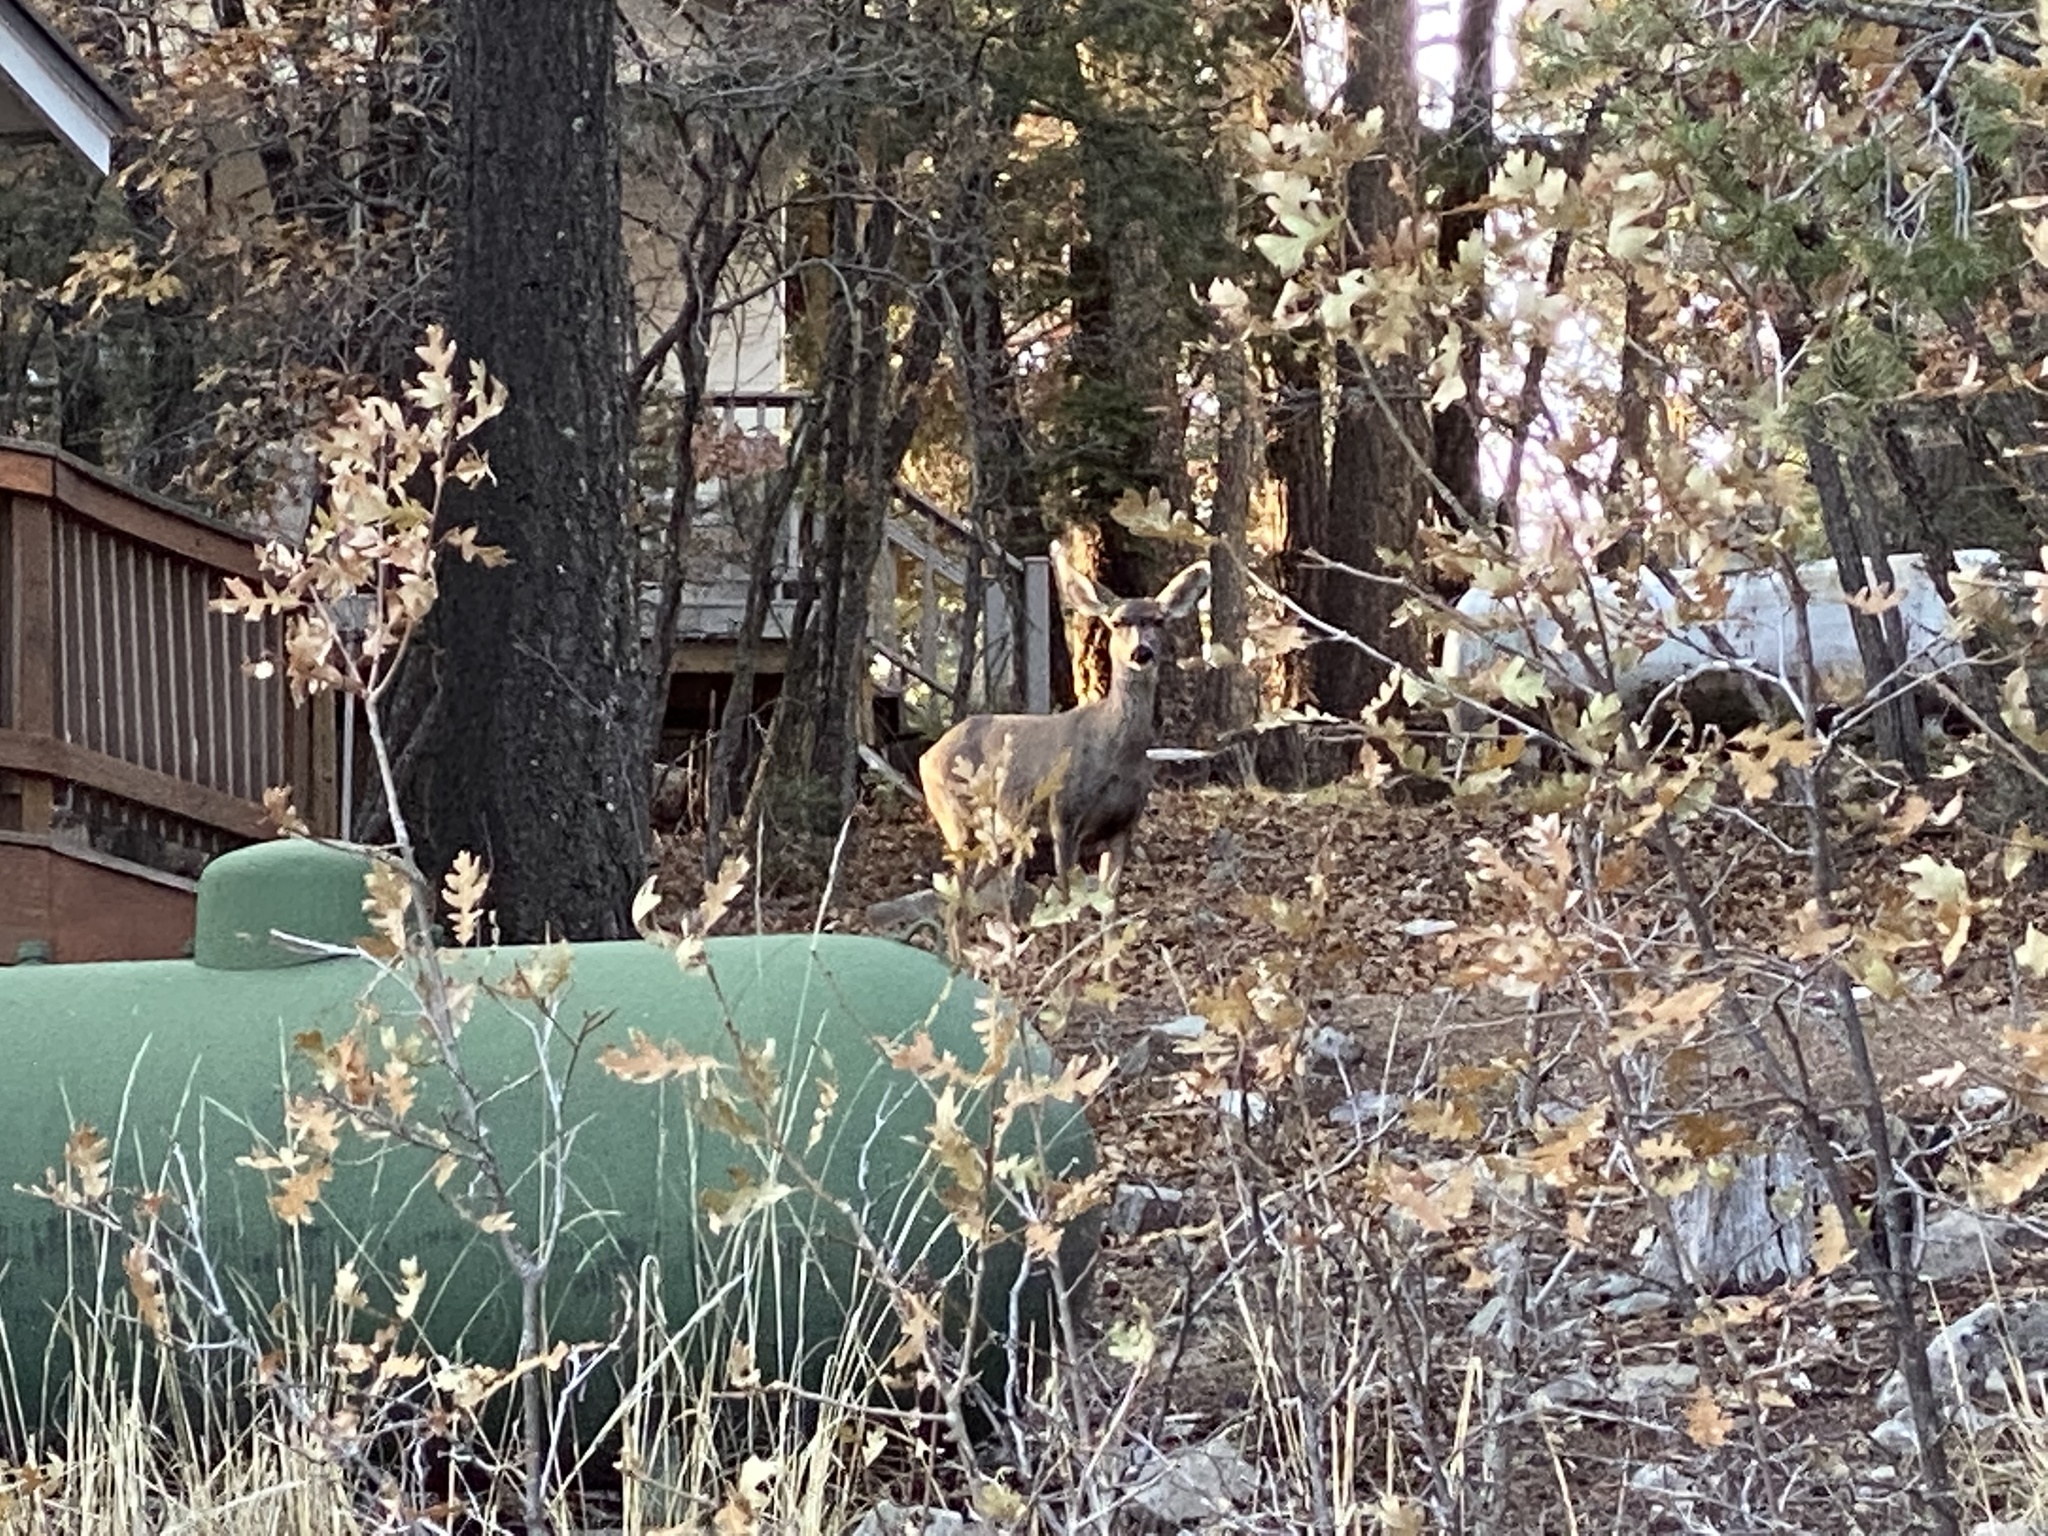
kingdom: Animalia
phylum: Chordata
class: Mammalia
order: Artiodactyla
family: Cervidae
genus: Odocoileus
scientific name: Odocoileus hemionus
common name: Mule deer
